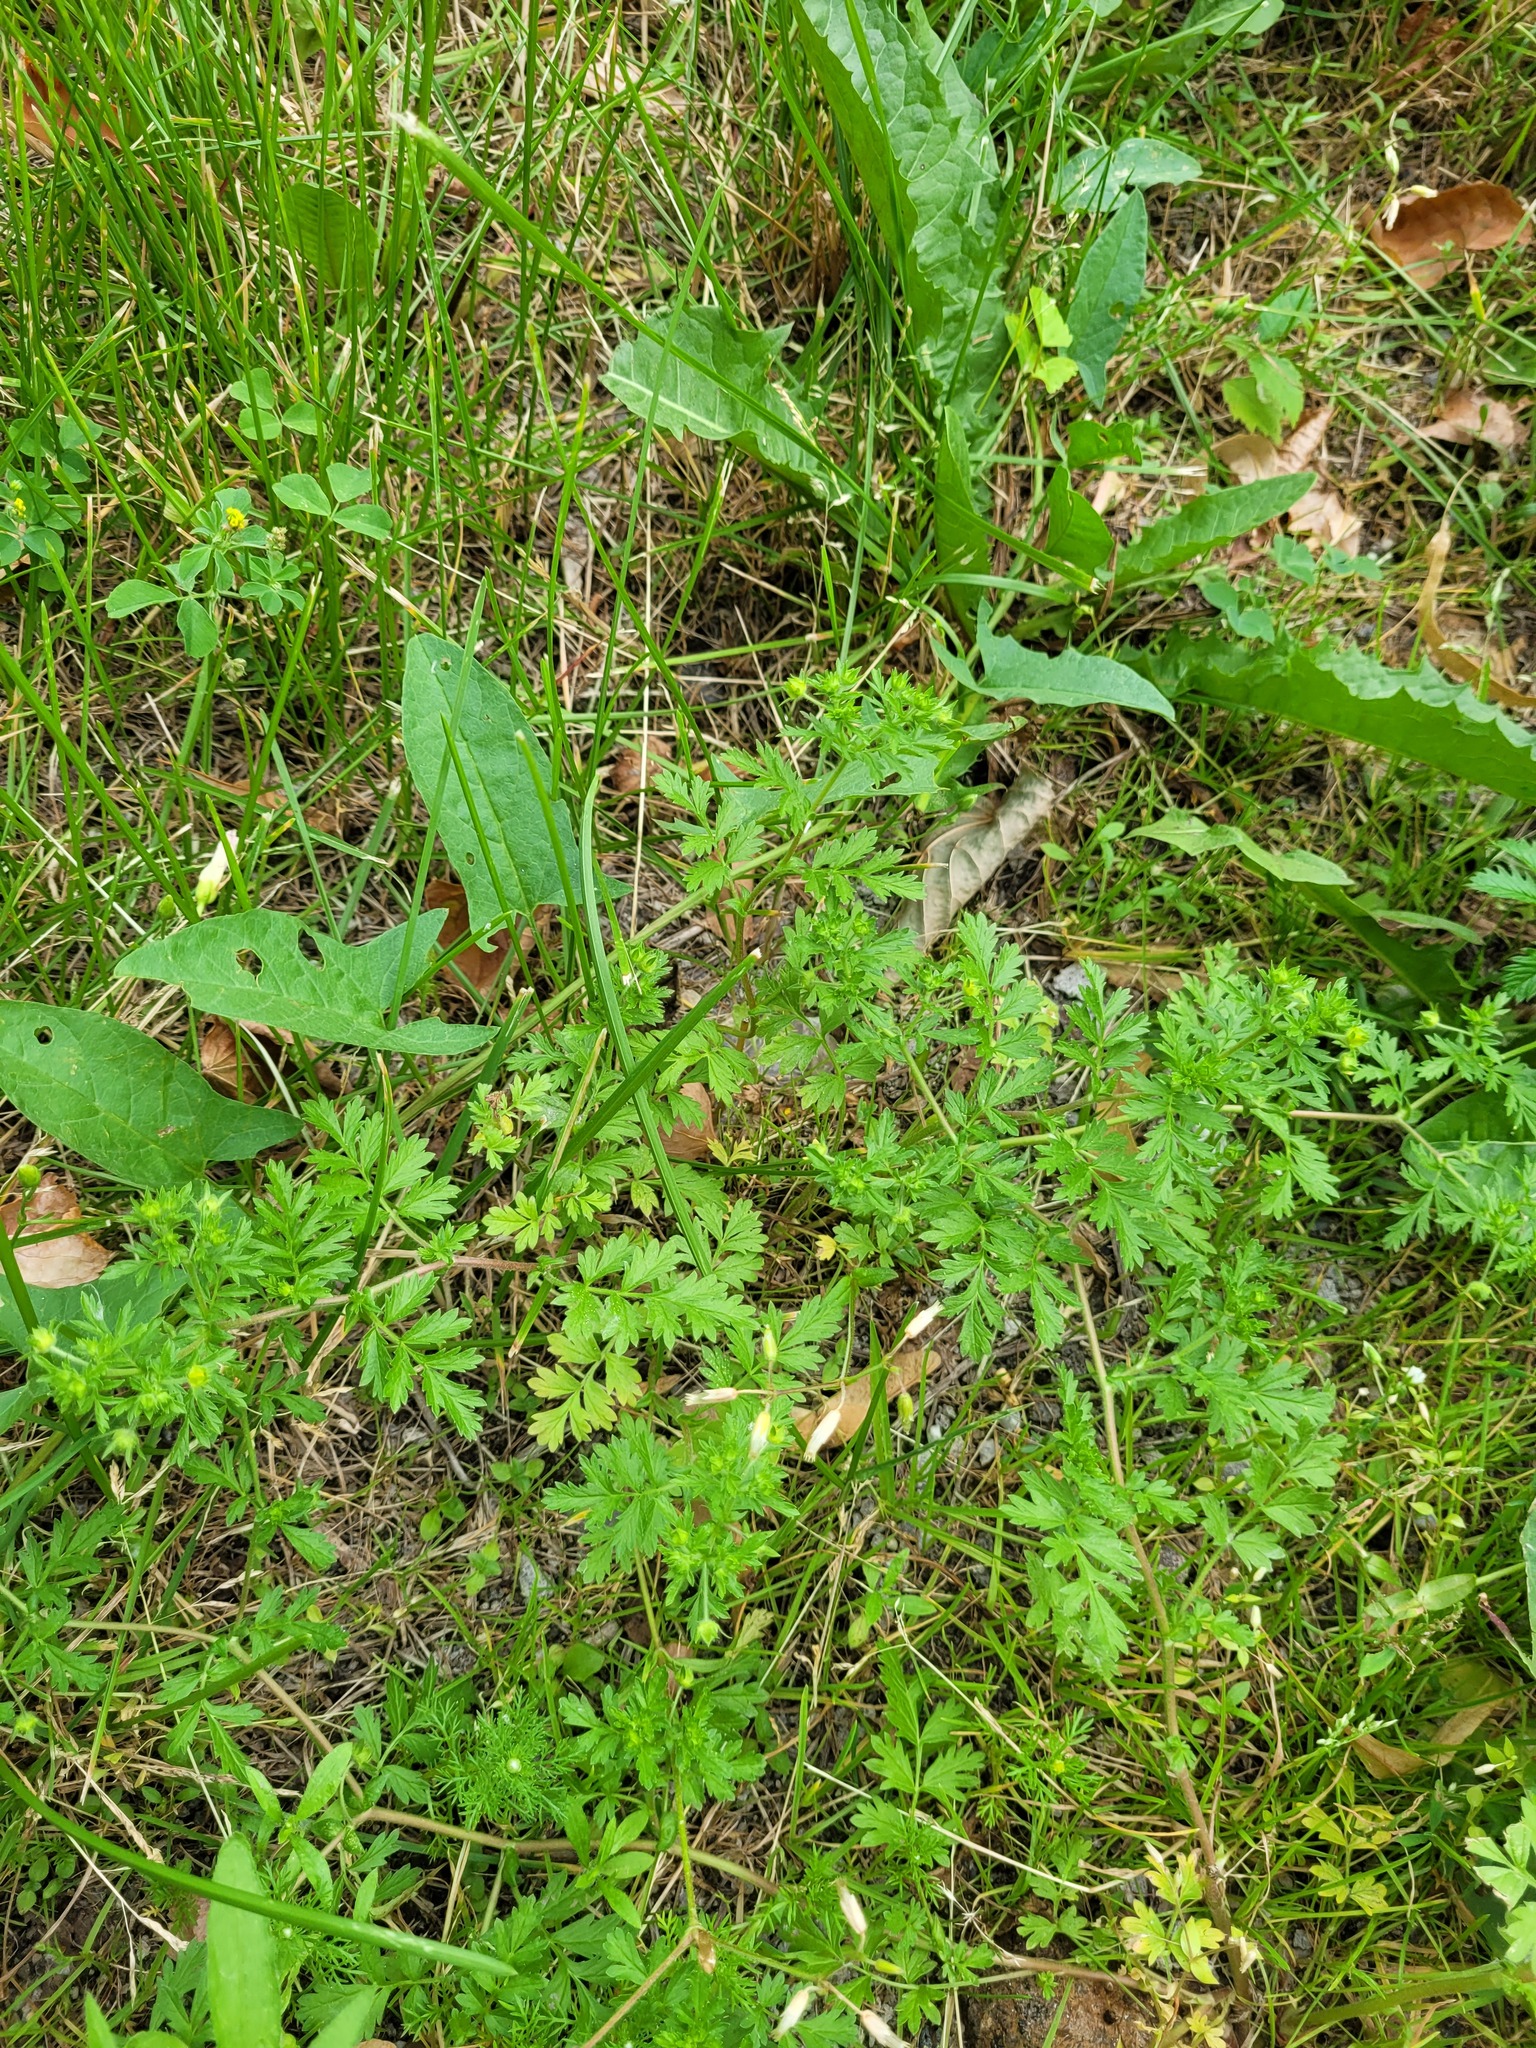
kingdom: Plantae
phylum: Tracheophyta
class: Magnoliopsida
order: Rosales
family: Rosaceae
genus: Potentilla
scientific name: Potentilla supina
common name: Prostrate cinquefoil
